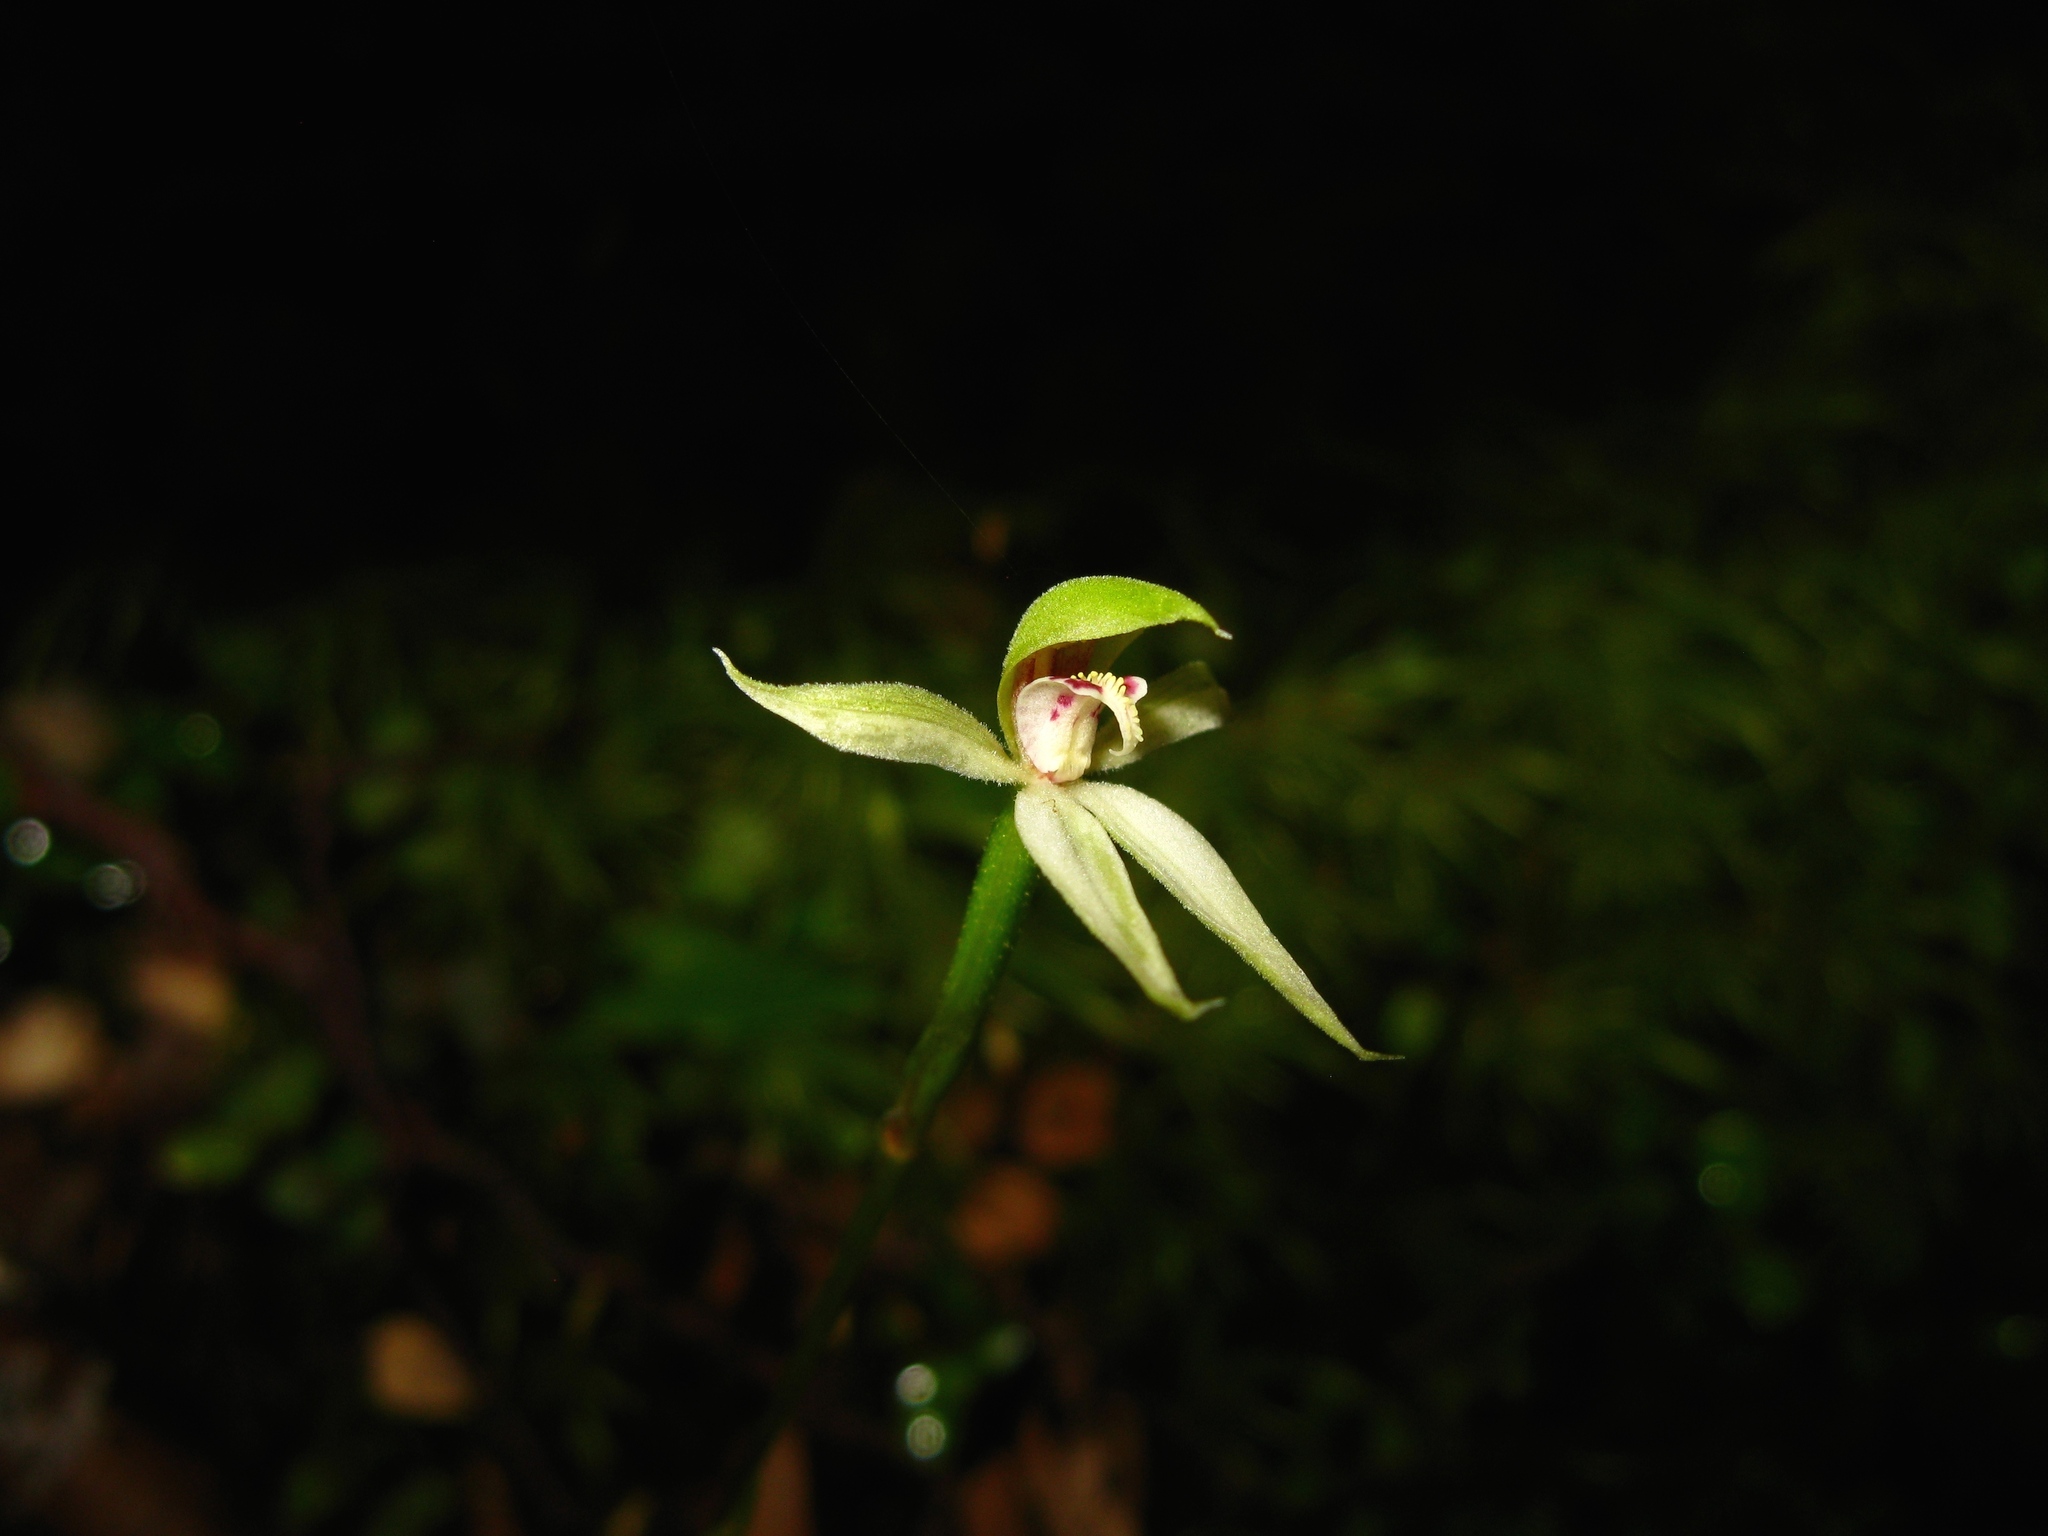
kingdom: Plantae
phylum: Tracheophyta
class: Liliopsida
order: Asparagales
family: Orchidaceae
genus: Adenochilus
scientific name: Adenochilus gracilis
